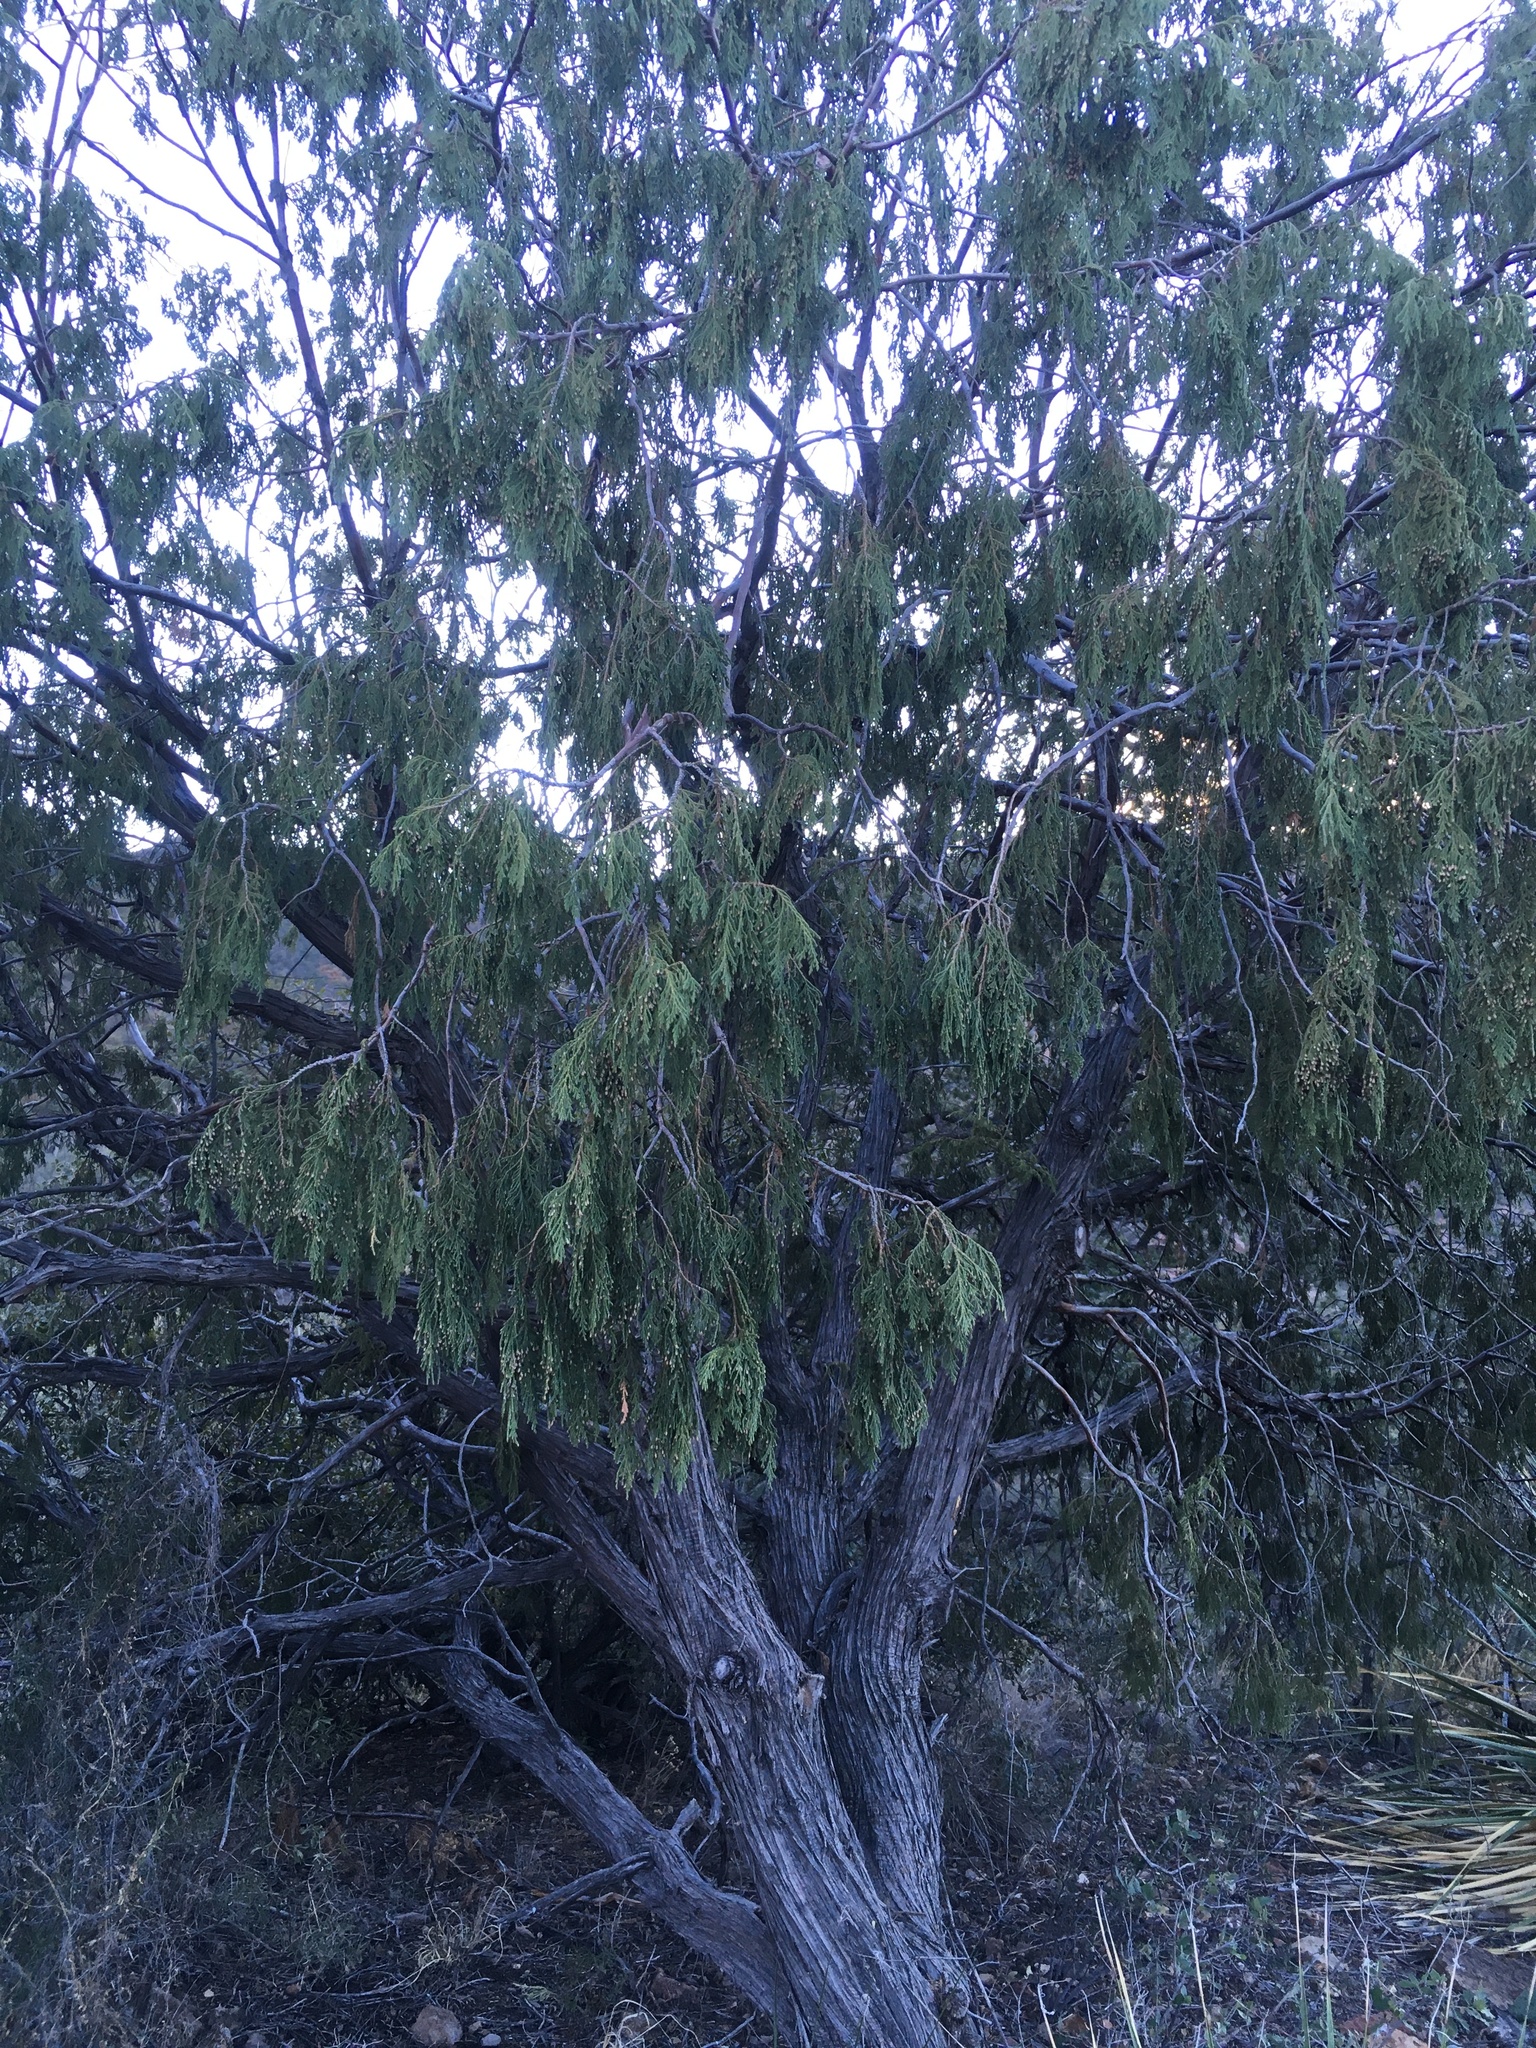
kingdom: Plantae
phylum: Tracheophyta
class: Pinopsida
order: Pinales
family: Cupressaceae
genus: Juniperus
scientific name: Juniperus flaccida
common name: Drooping juniper
